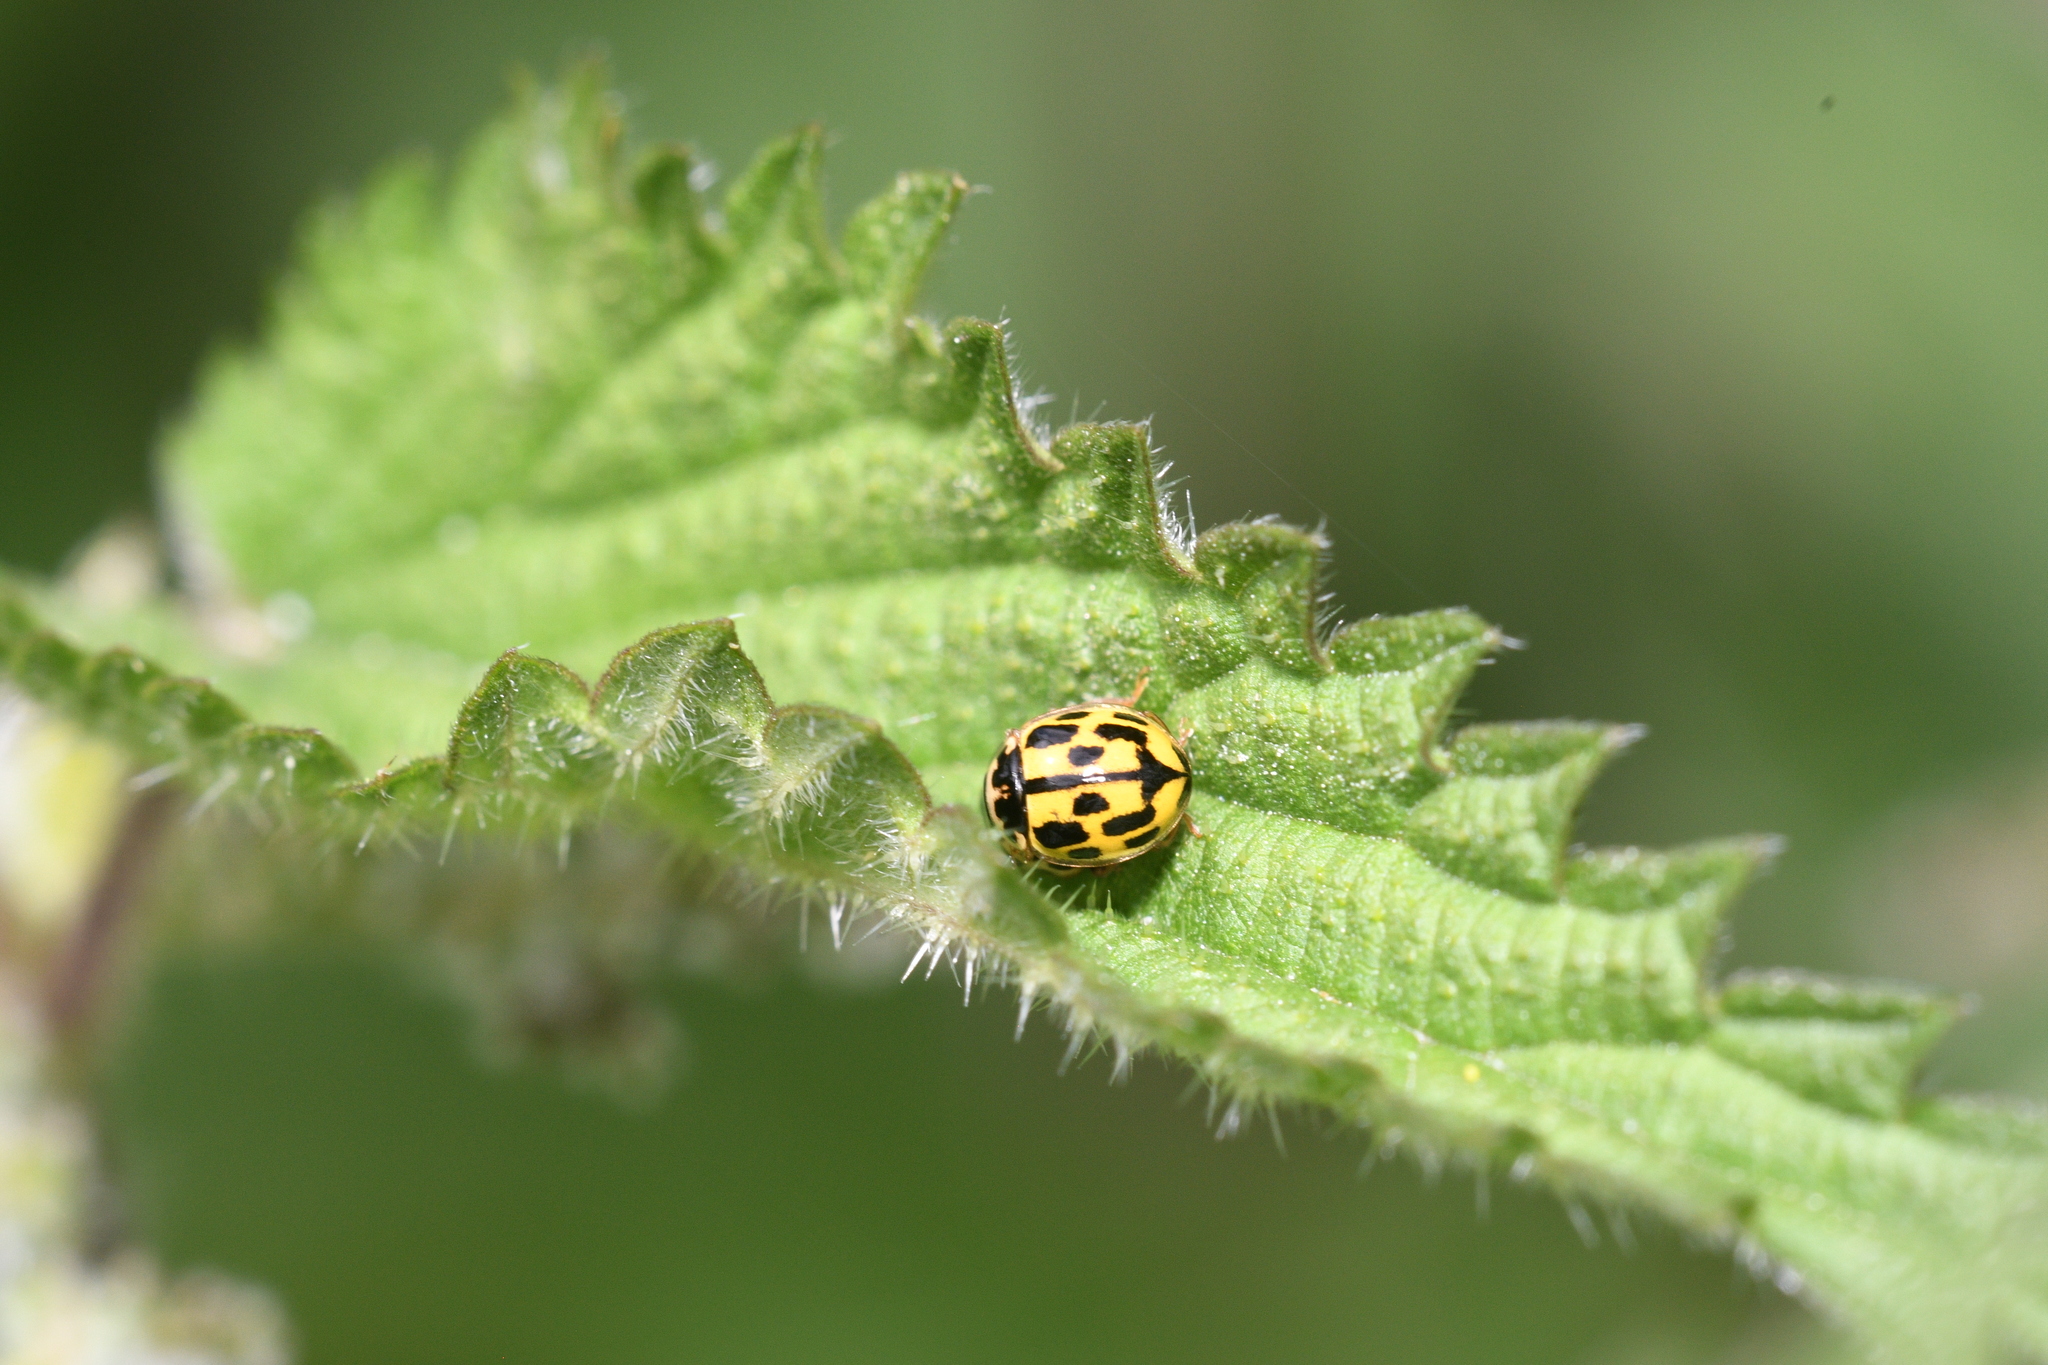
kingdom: Animalia
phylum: Arthropoda
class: Insecta
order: Coleoptera
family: Coccinellidae
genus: Propylaea
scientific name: Propylaea quatuordecimpunctata
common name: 14-spotted ladybird beetle
